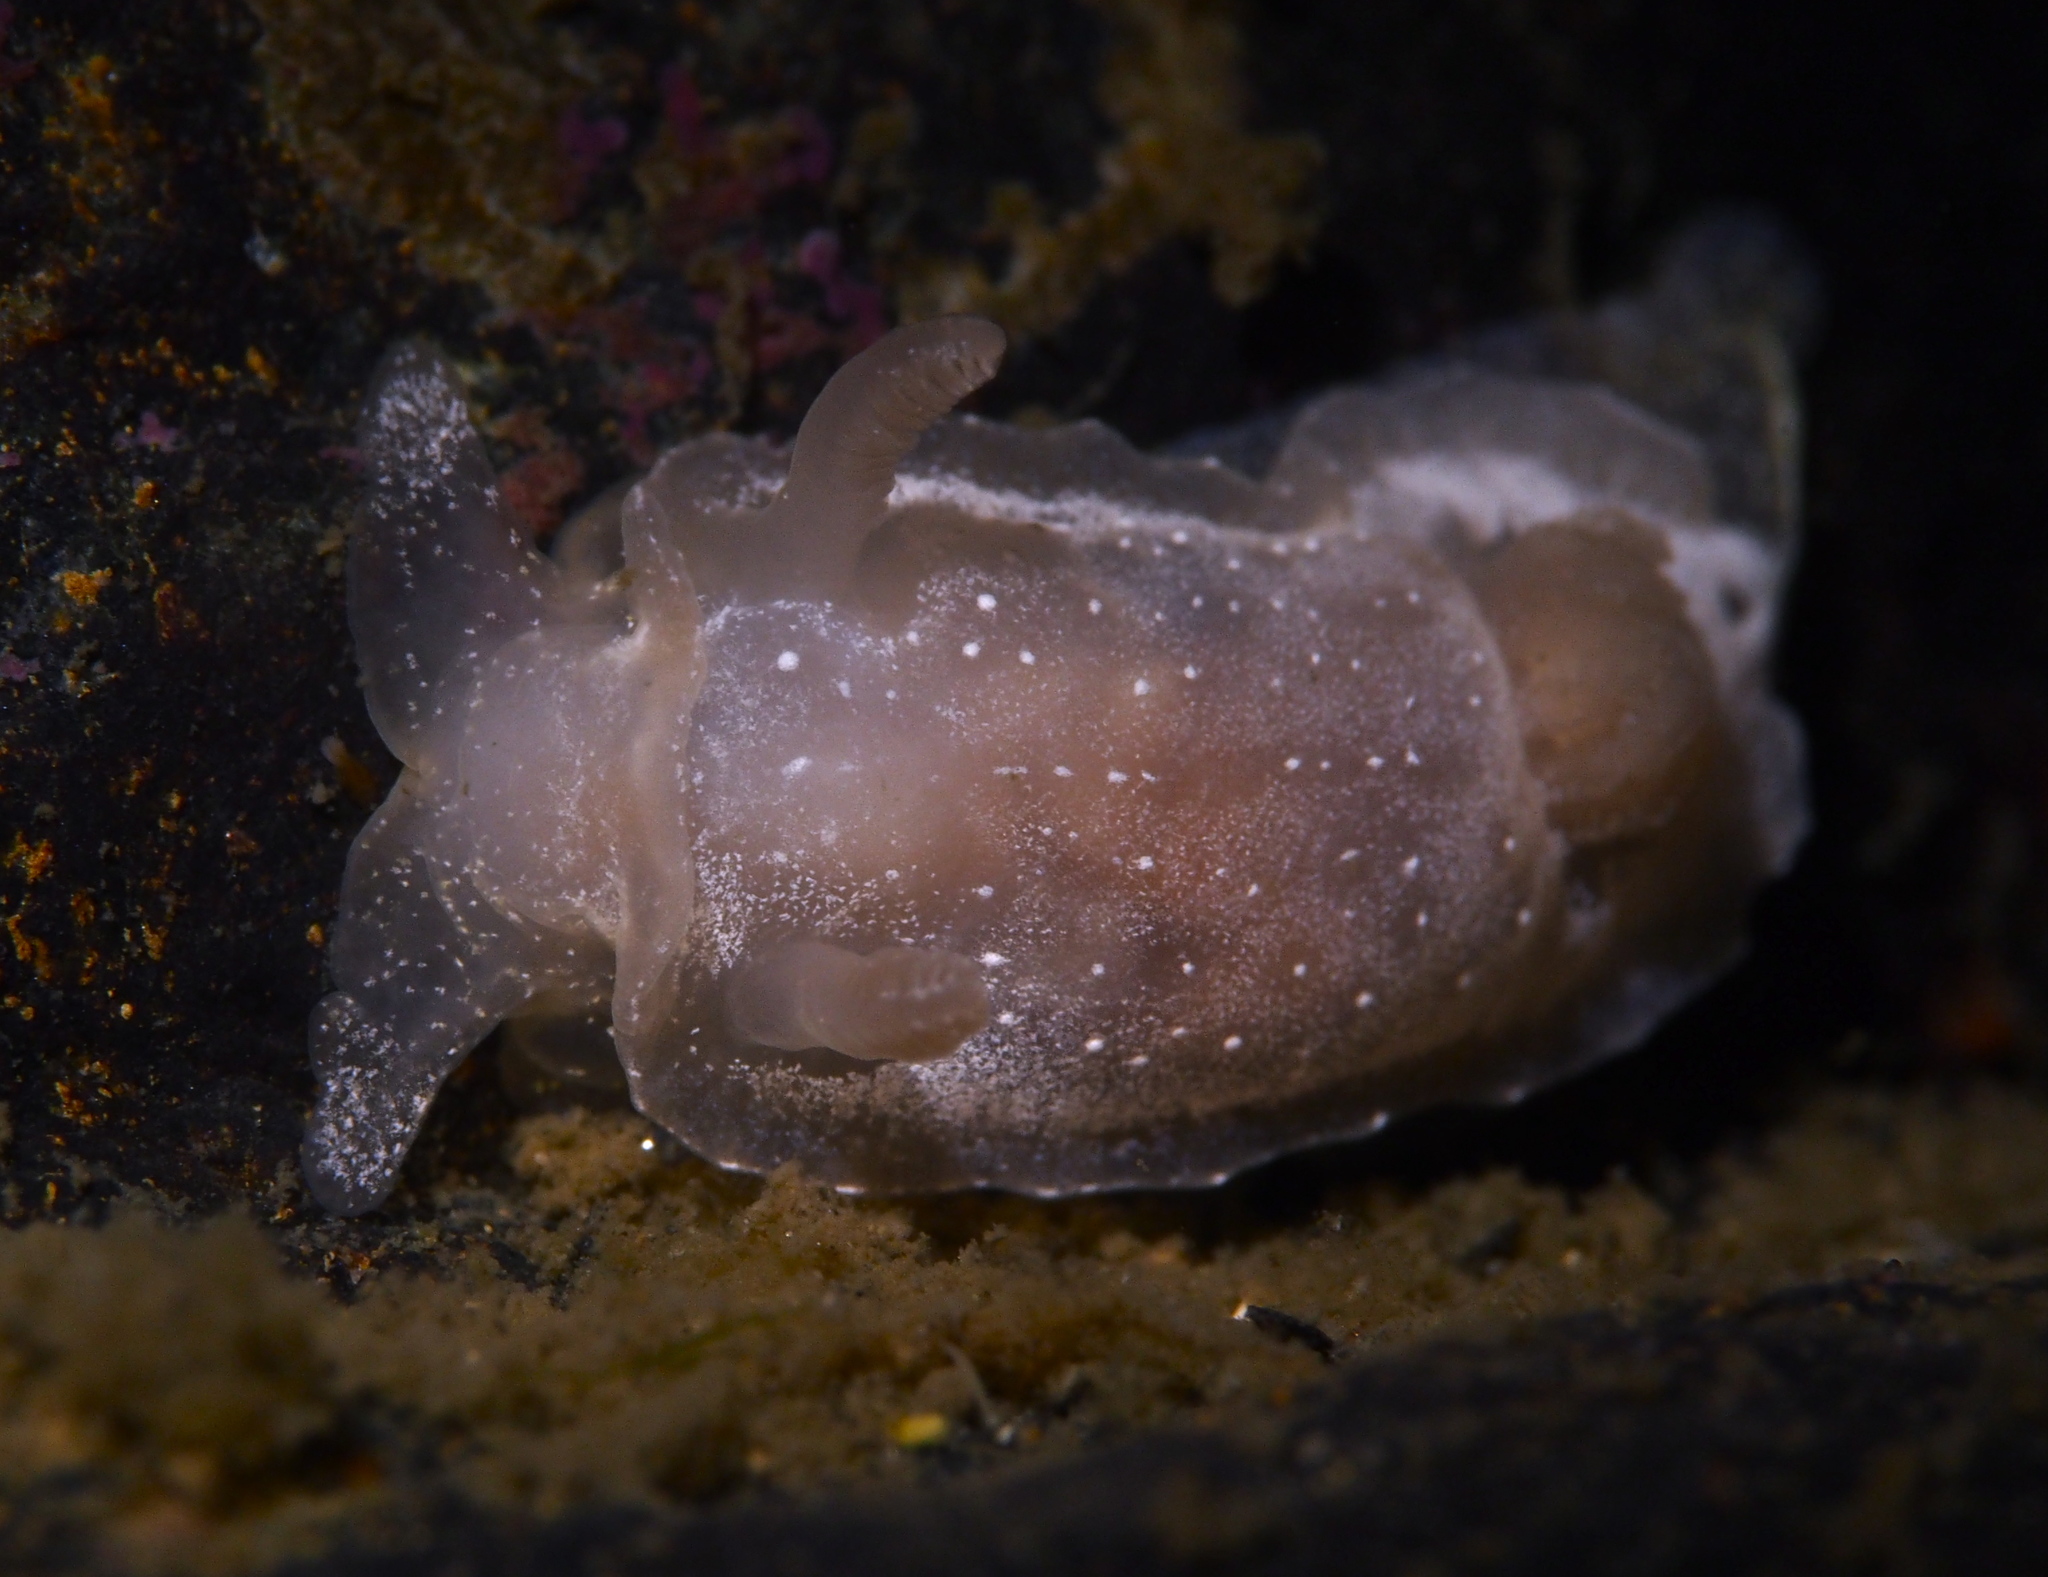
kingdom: Animalia
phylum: Mollusca
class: Gastropoda
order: Nudibranchia
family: Goniodorididae
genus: Okenia
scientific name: Okenia
